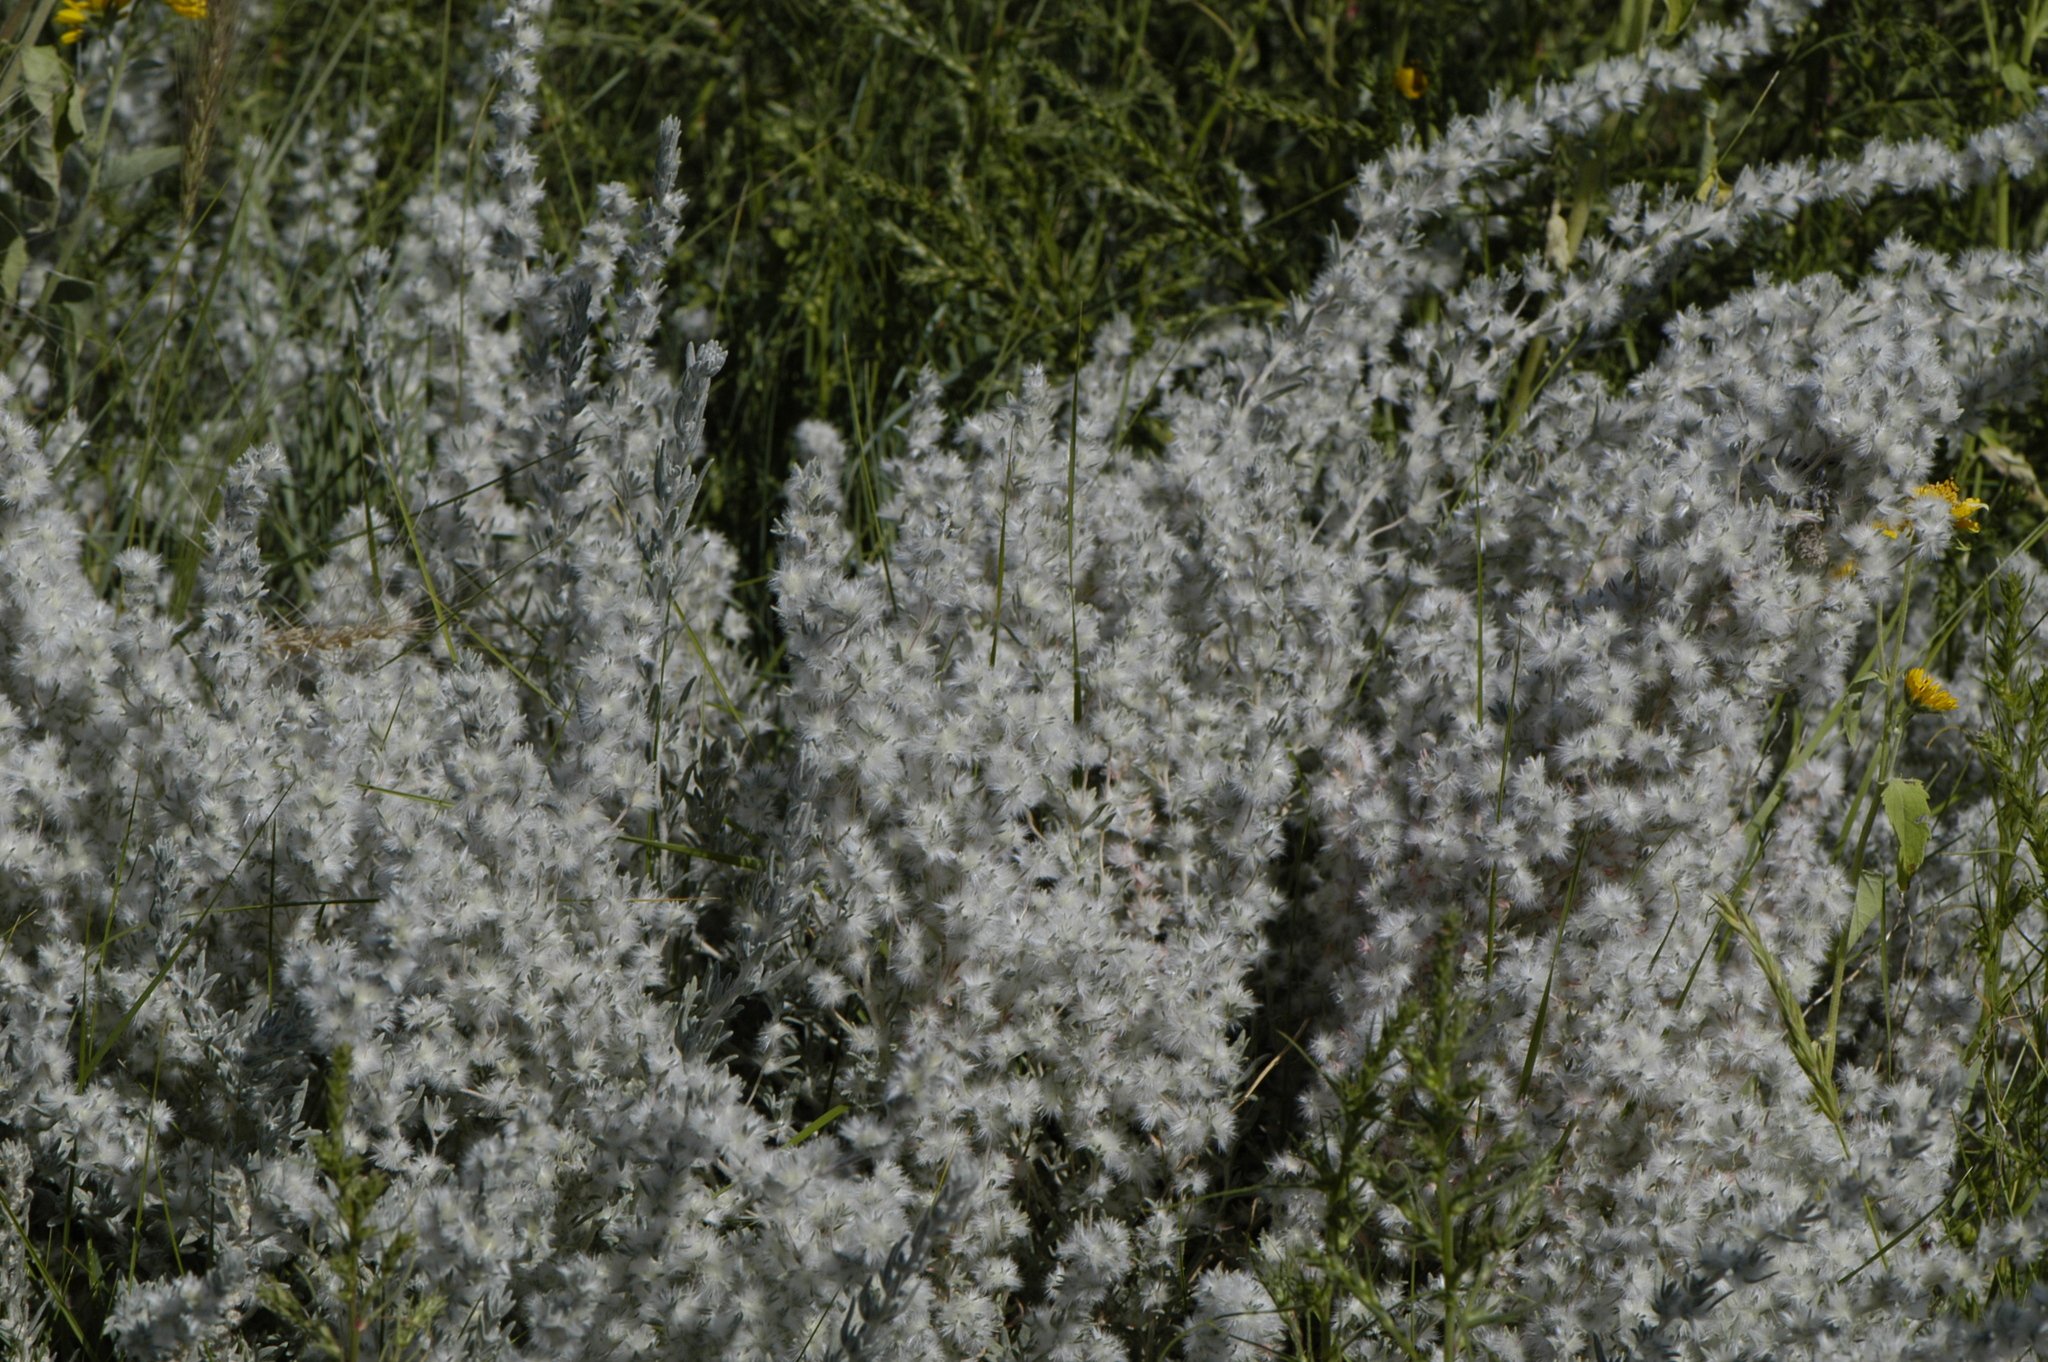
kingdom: Plantae
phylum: Tracheophyta
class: Magnoliopsida
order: Caryophyllales
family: Amaranthaceae
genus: Krascheninnikovia
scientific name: Krascheninnikovia lanata
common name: Winterfat
